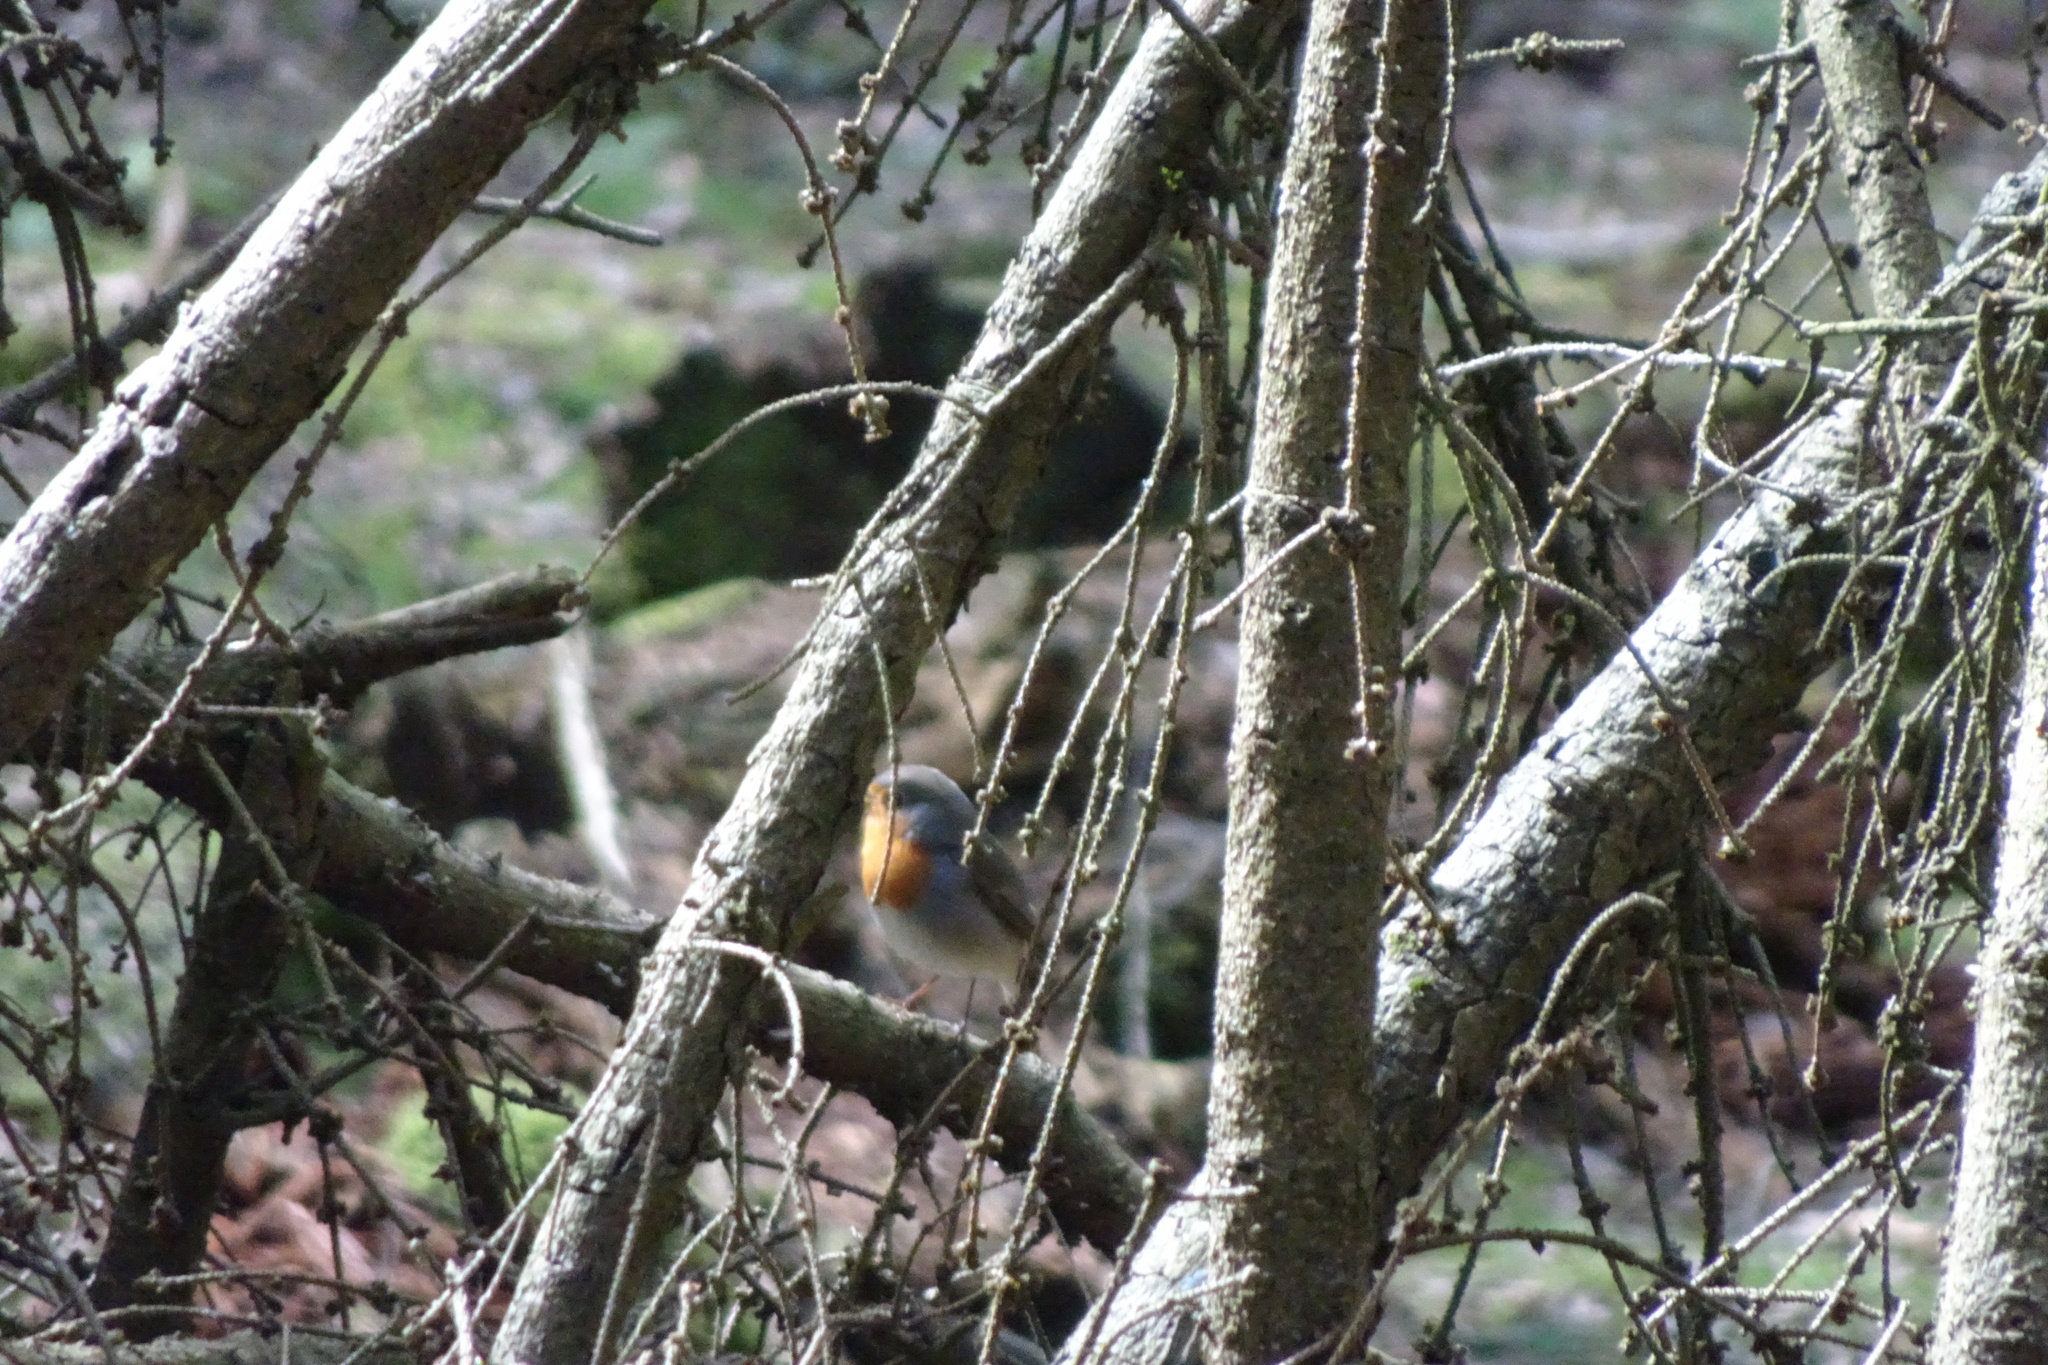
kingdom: Animalia
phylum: Chordata
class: Aves
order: Passeriformes
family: Muscicapidae
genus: Erithacus
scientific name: Erithacus rubecula
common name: European robin
